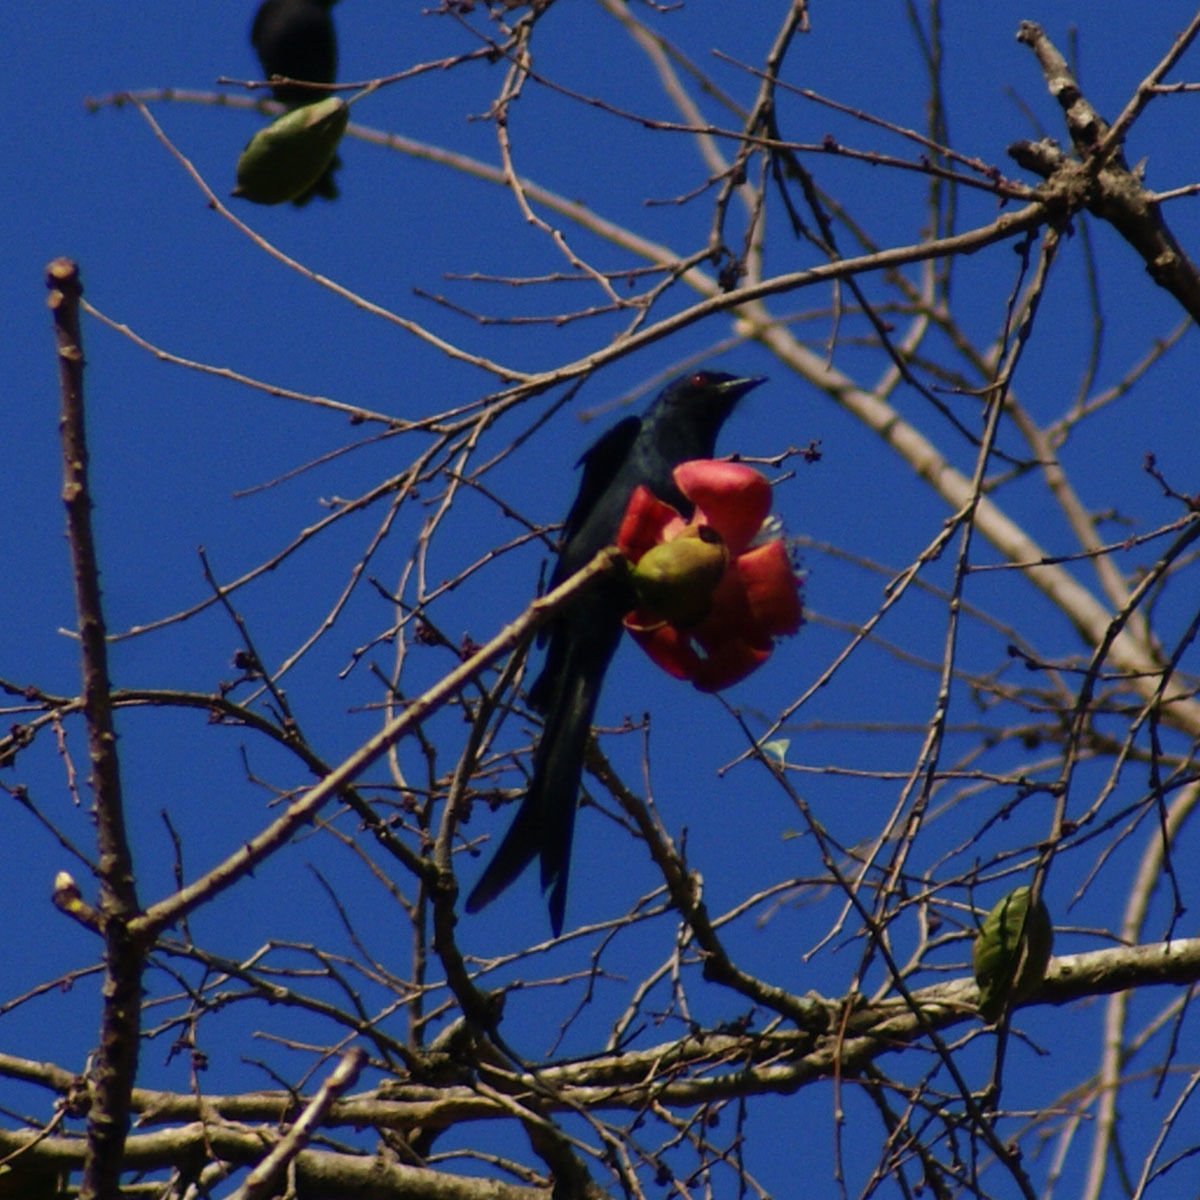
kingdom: Animalia
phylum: Chordata
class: Aves
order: Passeriformes
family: Dicruridae
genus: Dicrurus
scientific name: Dicrurus leucophaeus
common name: Ashy drongo
